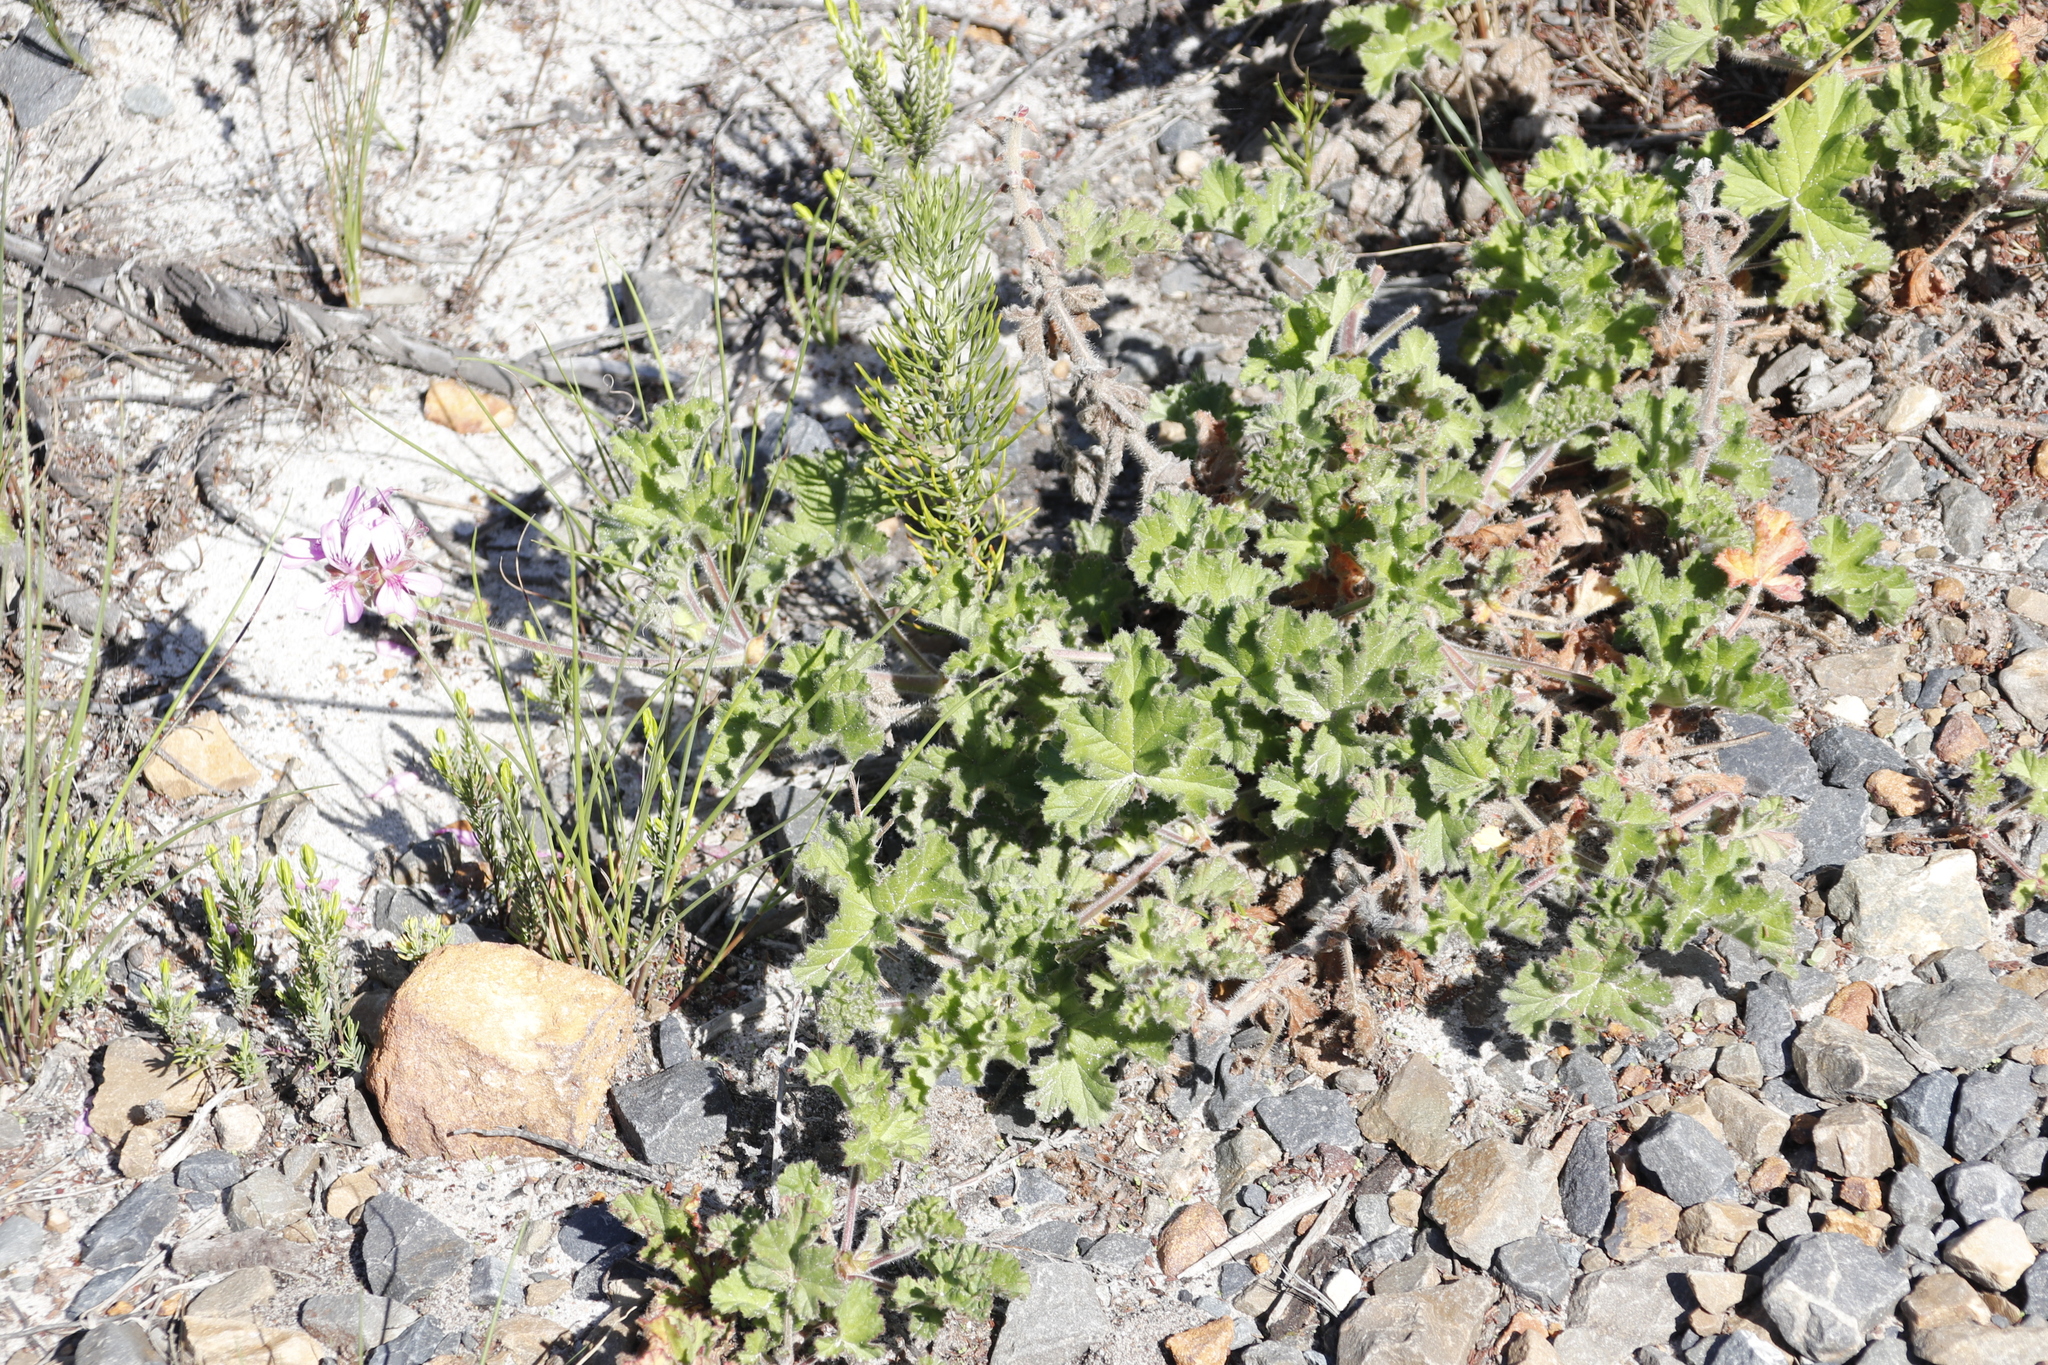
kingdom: Plantae
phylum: Tracheophyta
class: Magnoliopsida
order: Geraniales
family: Geraniaceae
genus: Pelargonium
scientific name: Pelargonium capitatum
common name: Rose scented geranium
